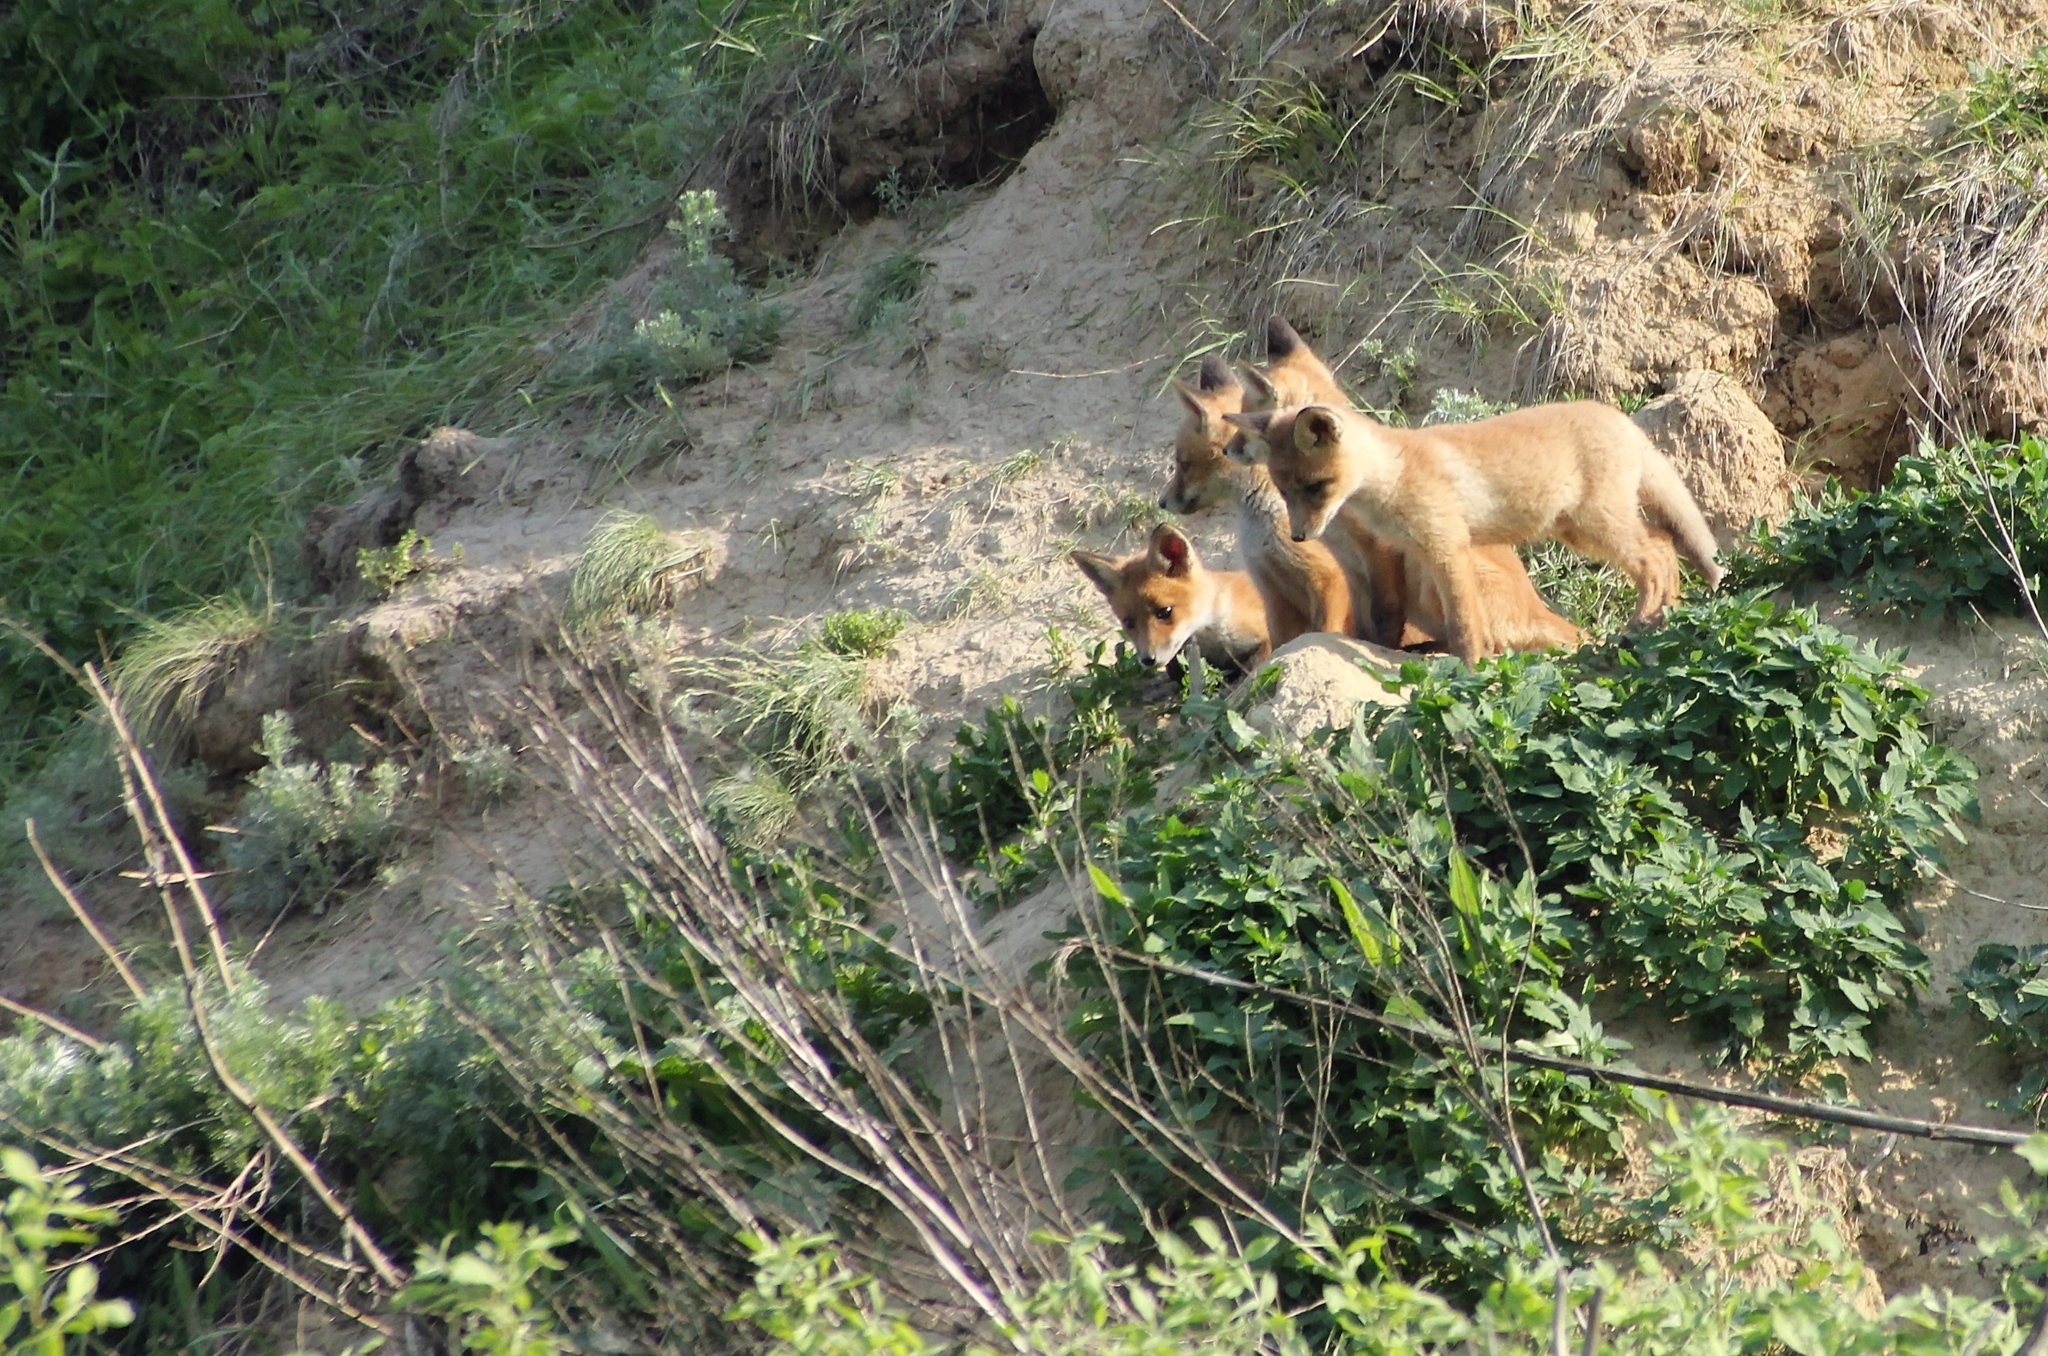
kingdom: Animalia
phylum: Chordata
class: Mammalia
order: Carnivora
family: Canidae
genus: Vulpes
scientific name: Vulpes vulpes
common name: Red fox
